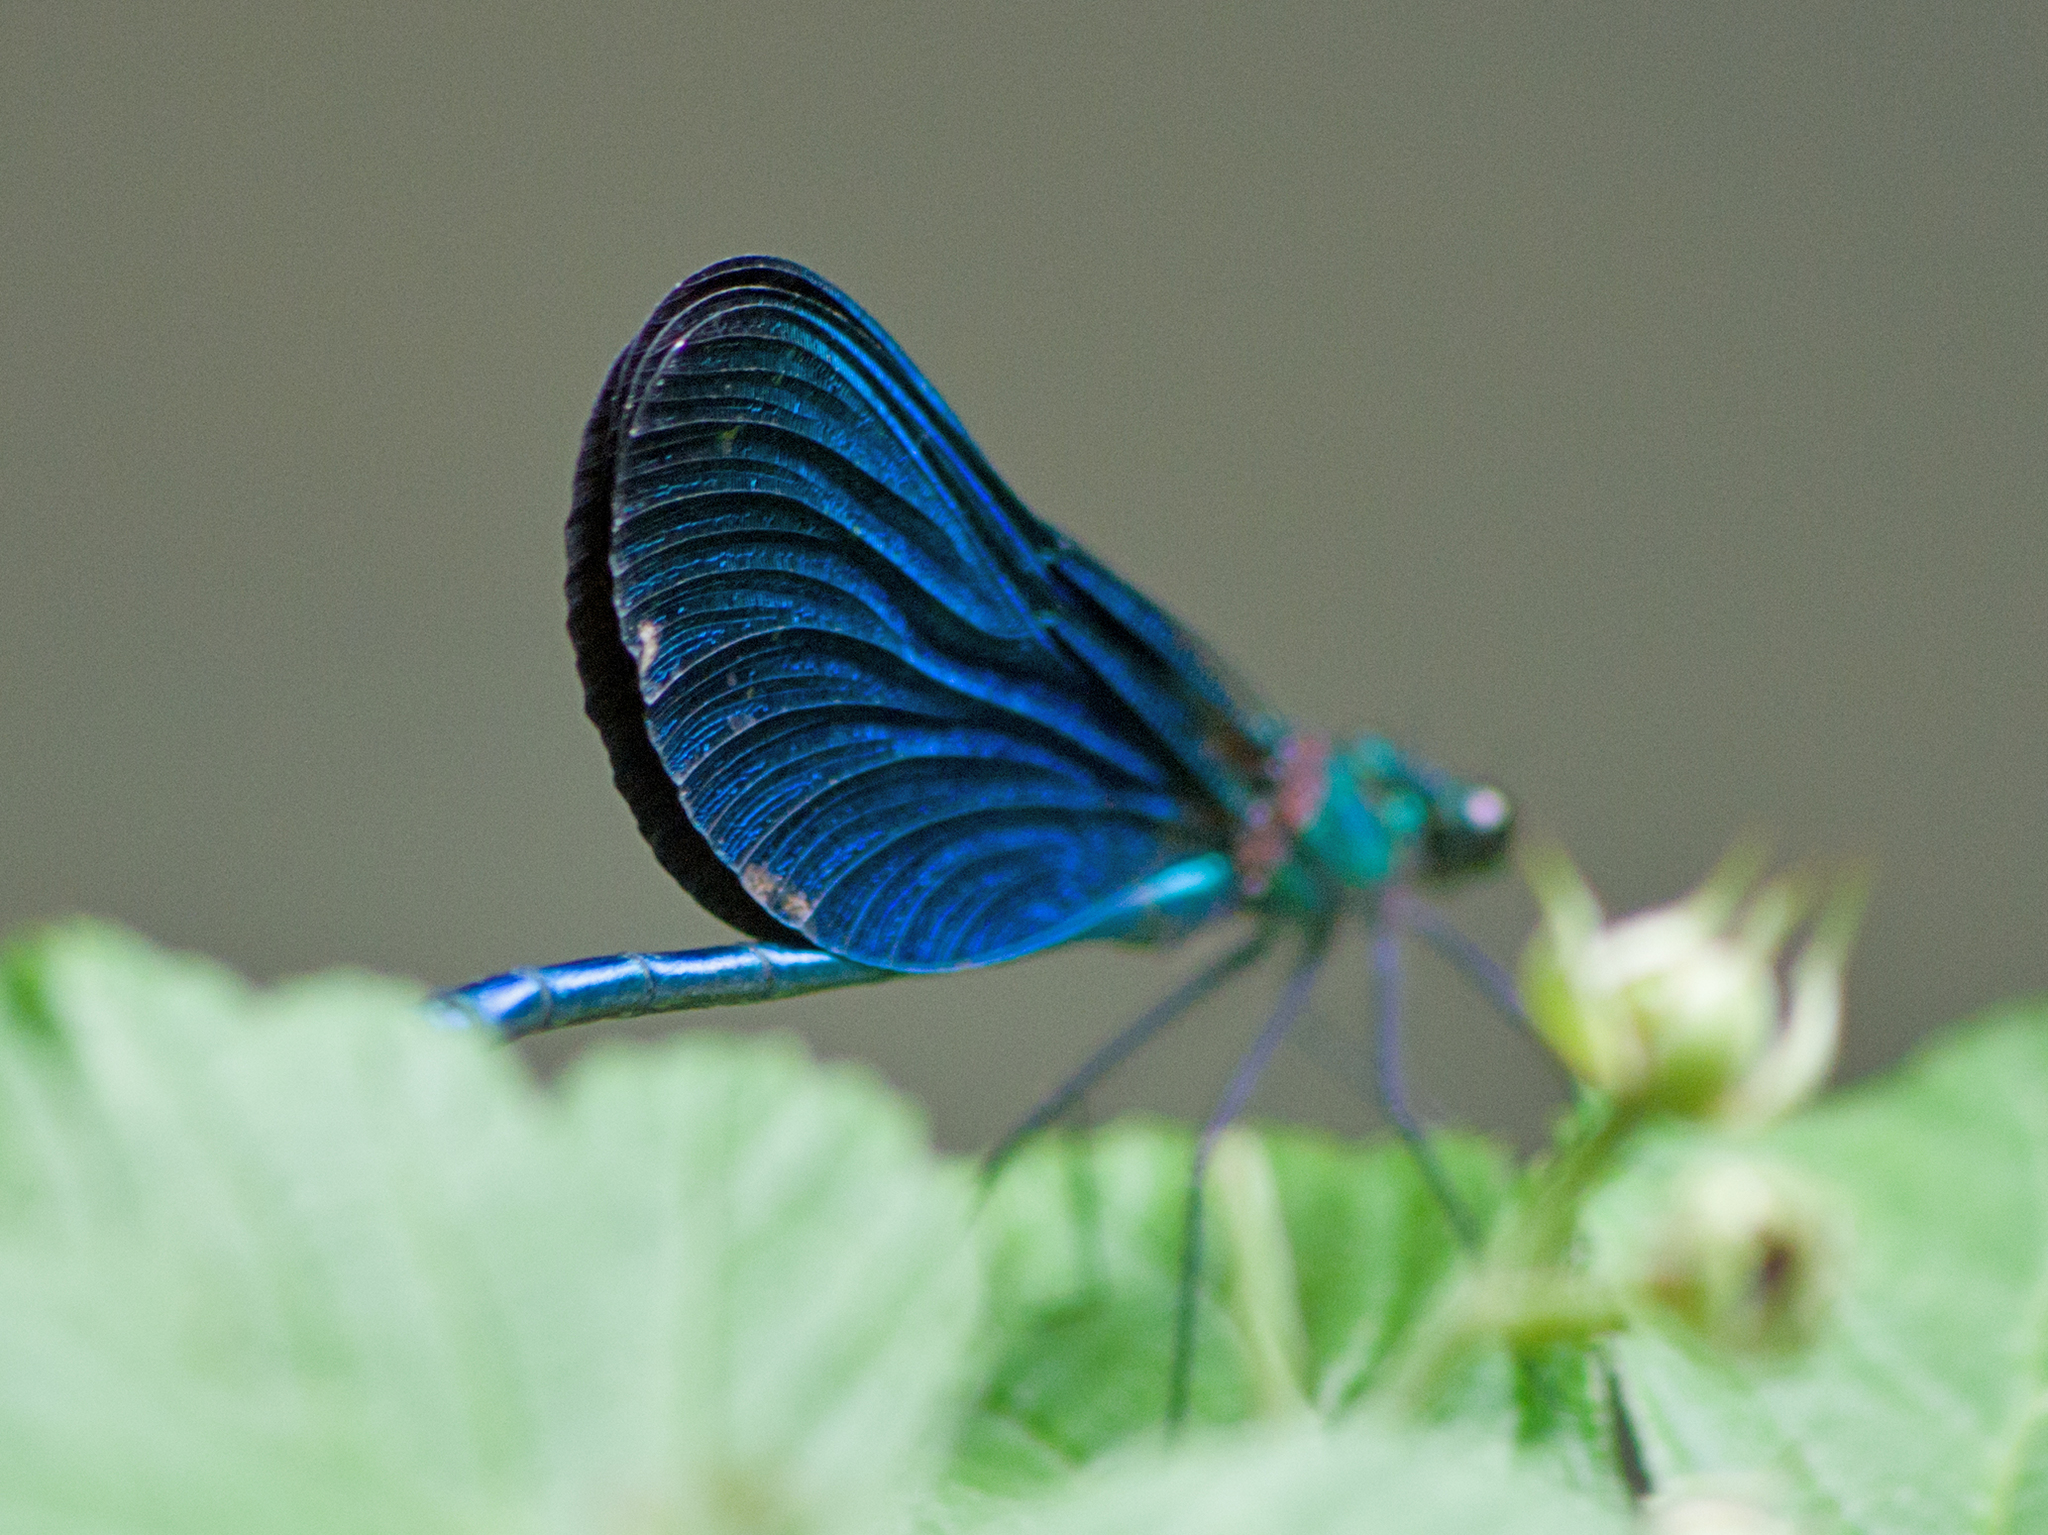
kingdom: Animalia
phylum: Arthropoda
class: Insecta
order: Odonata
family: Calopterygidae
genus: Calopteryx
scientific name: Calopteryx virgo
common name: Beautiful demoiselle
